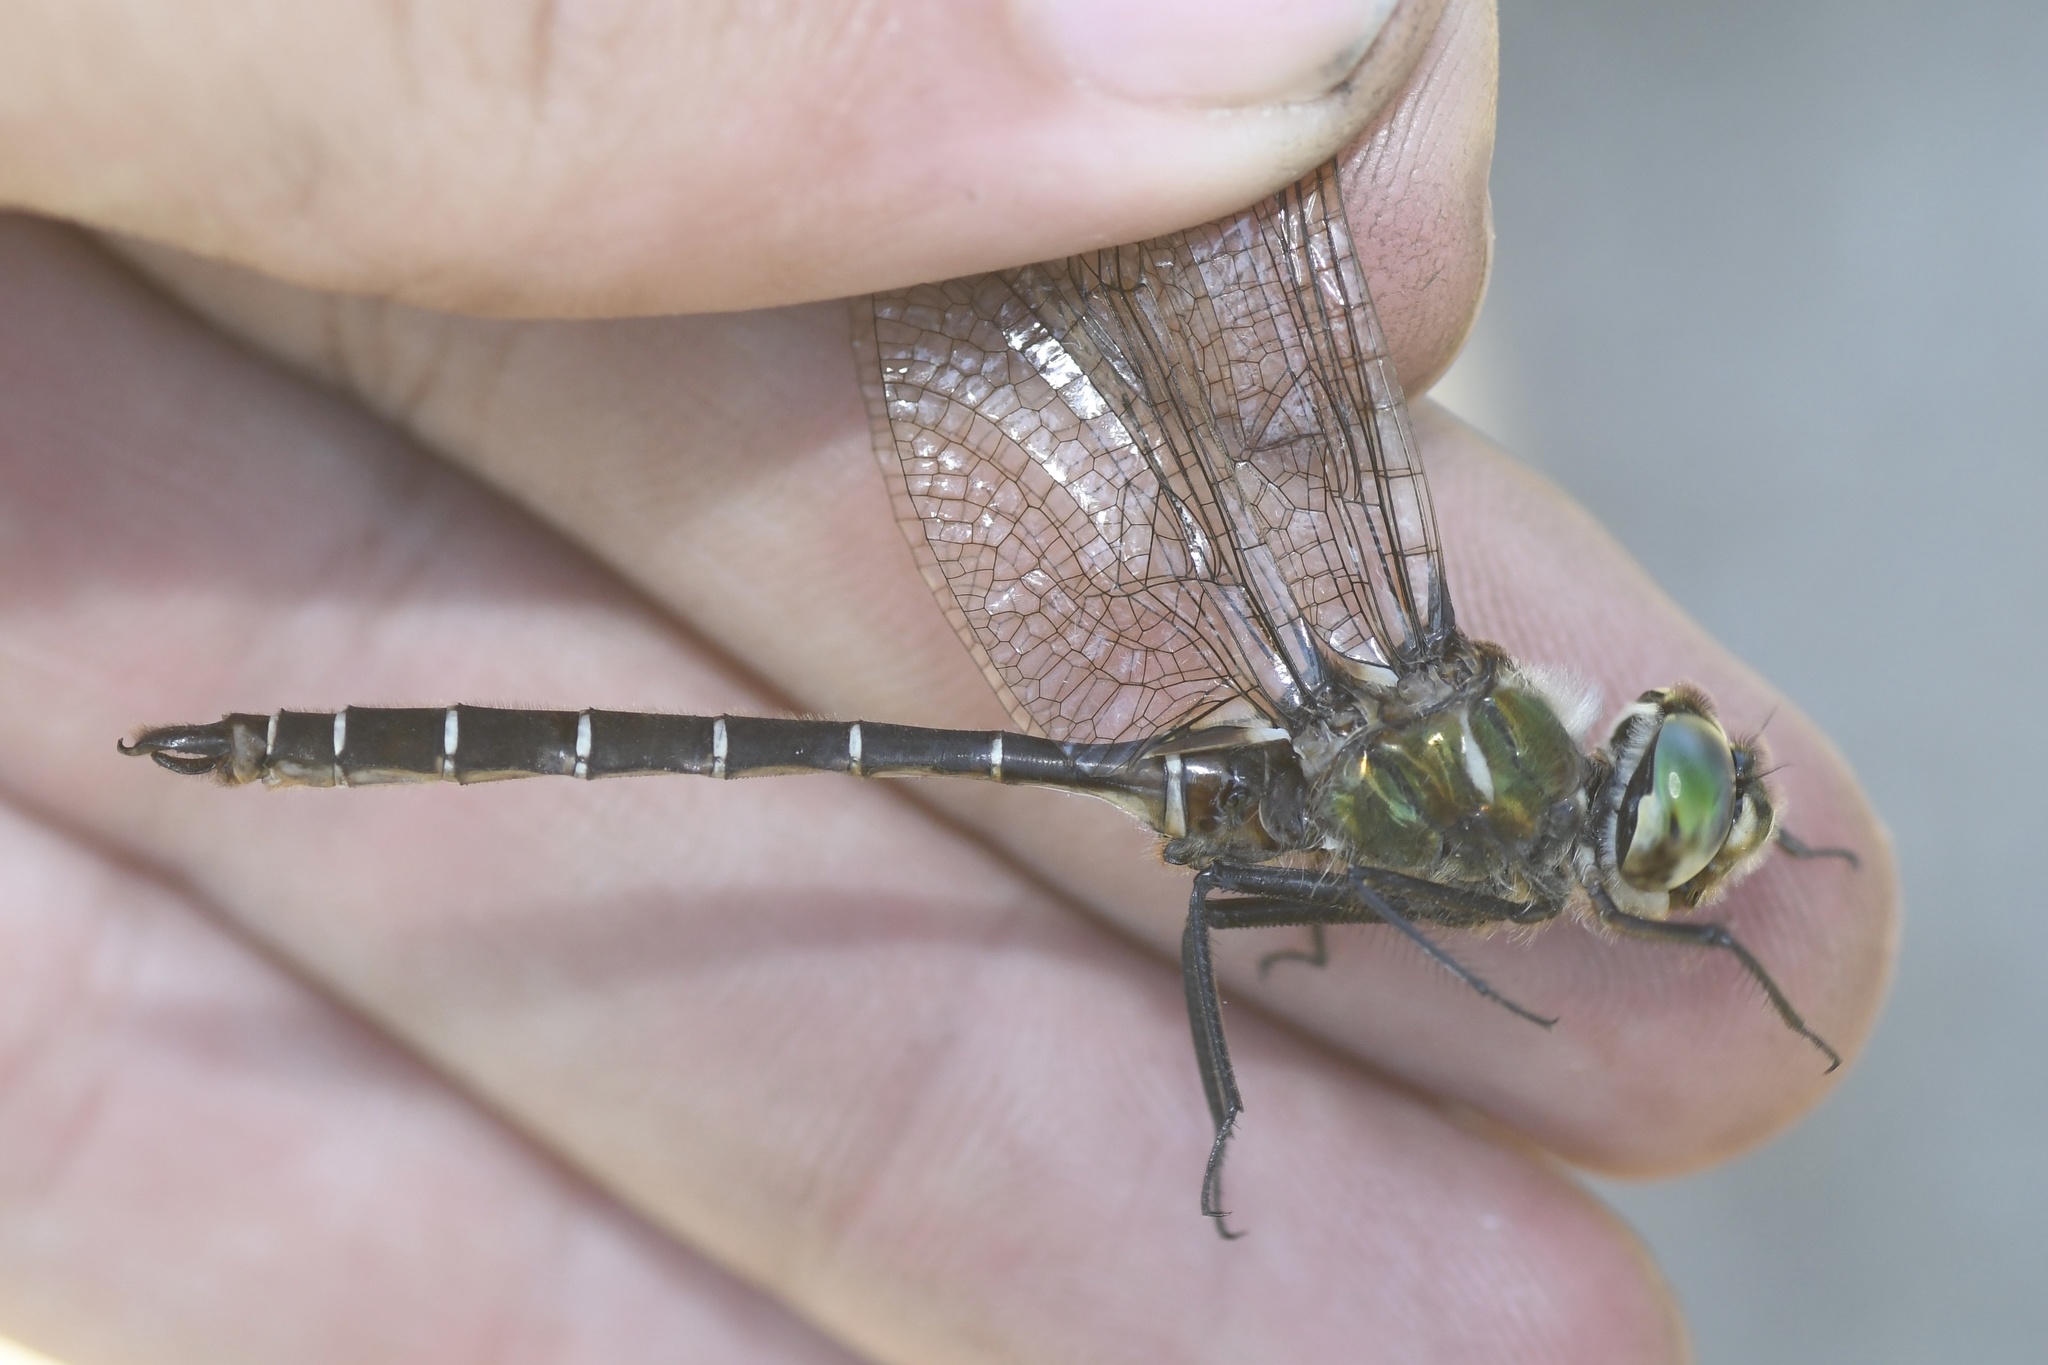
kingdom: Animalia
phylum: Arthropoda
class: Insecta
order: Odonata
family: Corduliidae
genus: Somatochlora
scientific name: Somatochlora albicincta
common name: Ringed emerald
